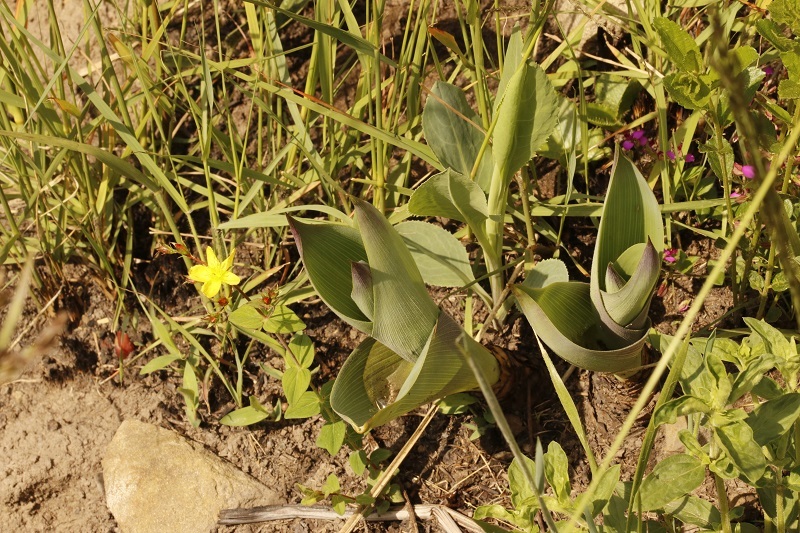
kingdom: Plantae
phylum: Tracheophyta
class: Liliopsida
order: Asparagales
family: Asparagaceae
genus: Merwilla
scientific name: Merwilla plumbea
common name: Blue-squill
